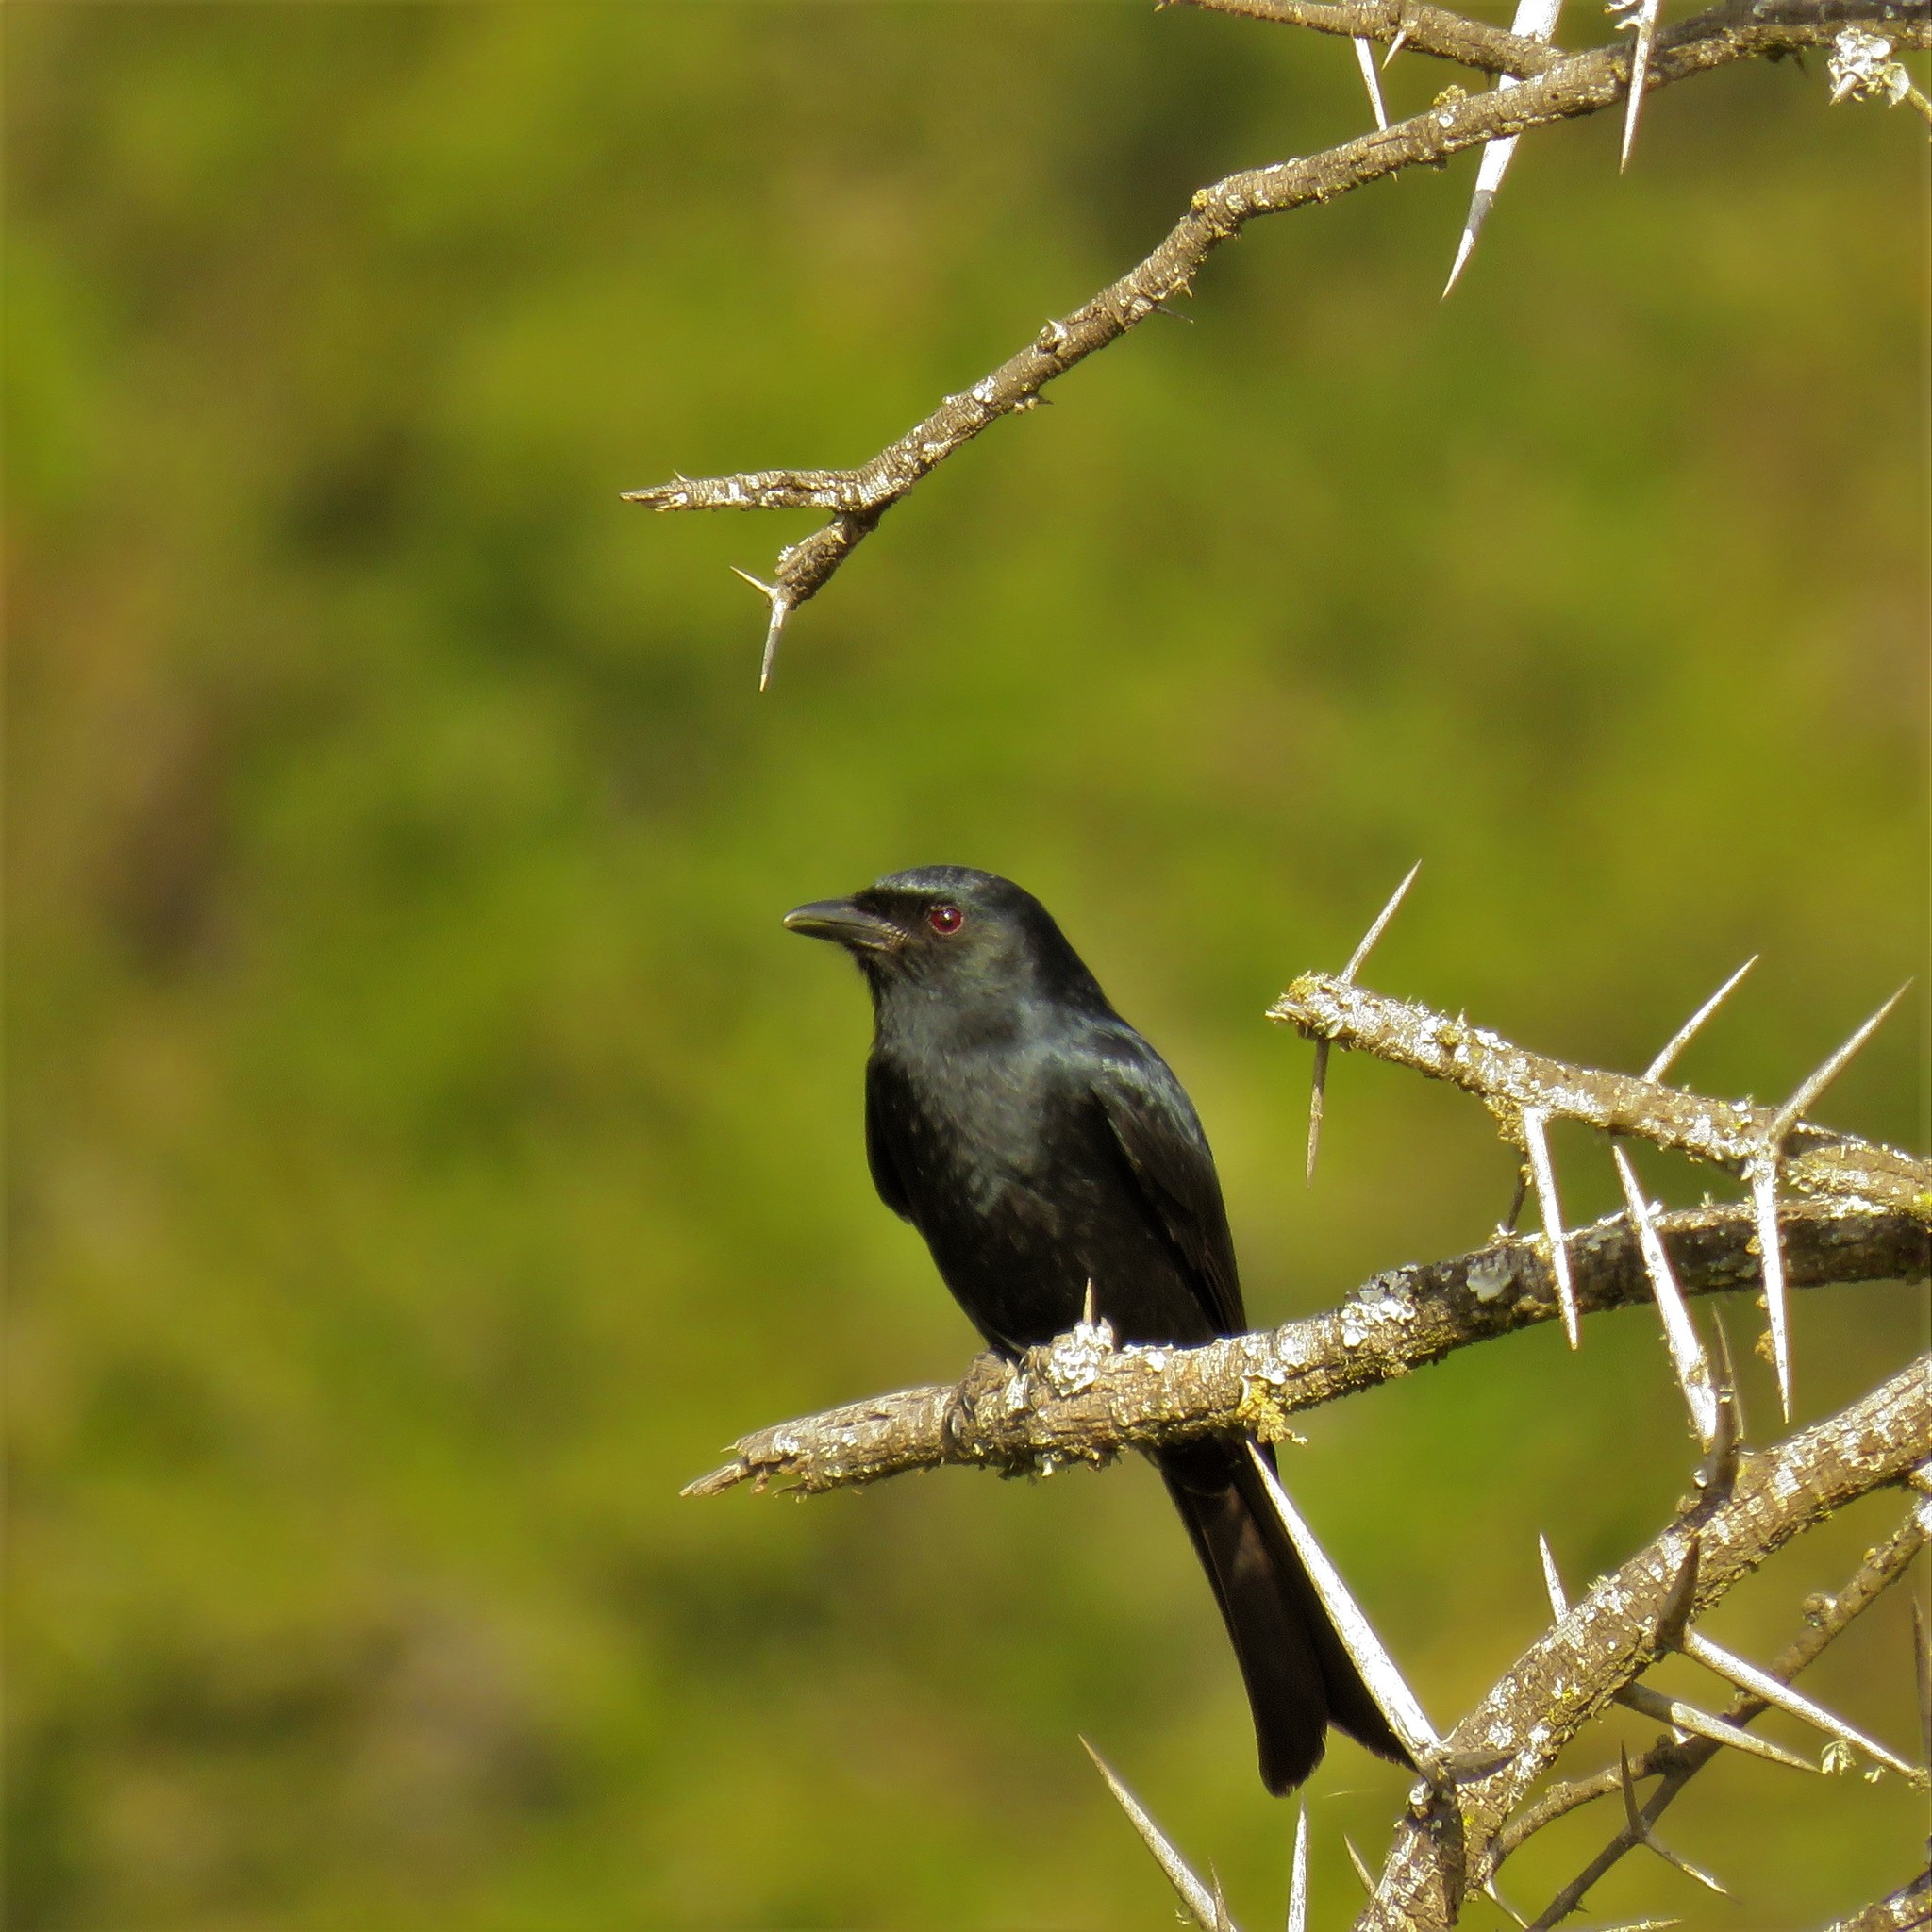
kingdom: Animalia
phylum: Chordata
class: Aves
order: Passeriformes
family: Dicruridae
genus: Dicrurus
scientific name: Dicrurus adsimilis
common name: Fork-tailed drongo
